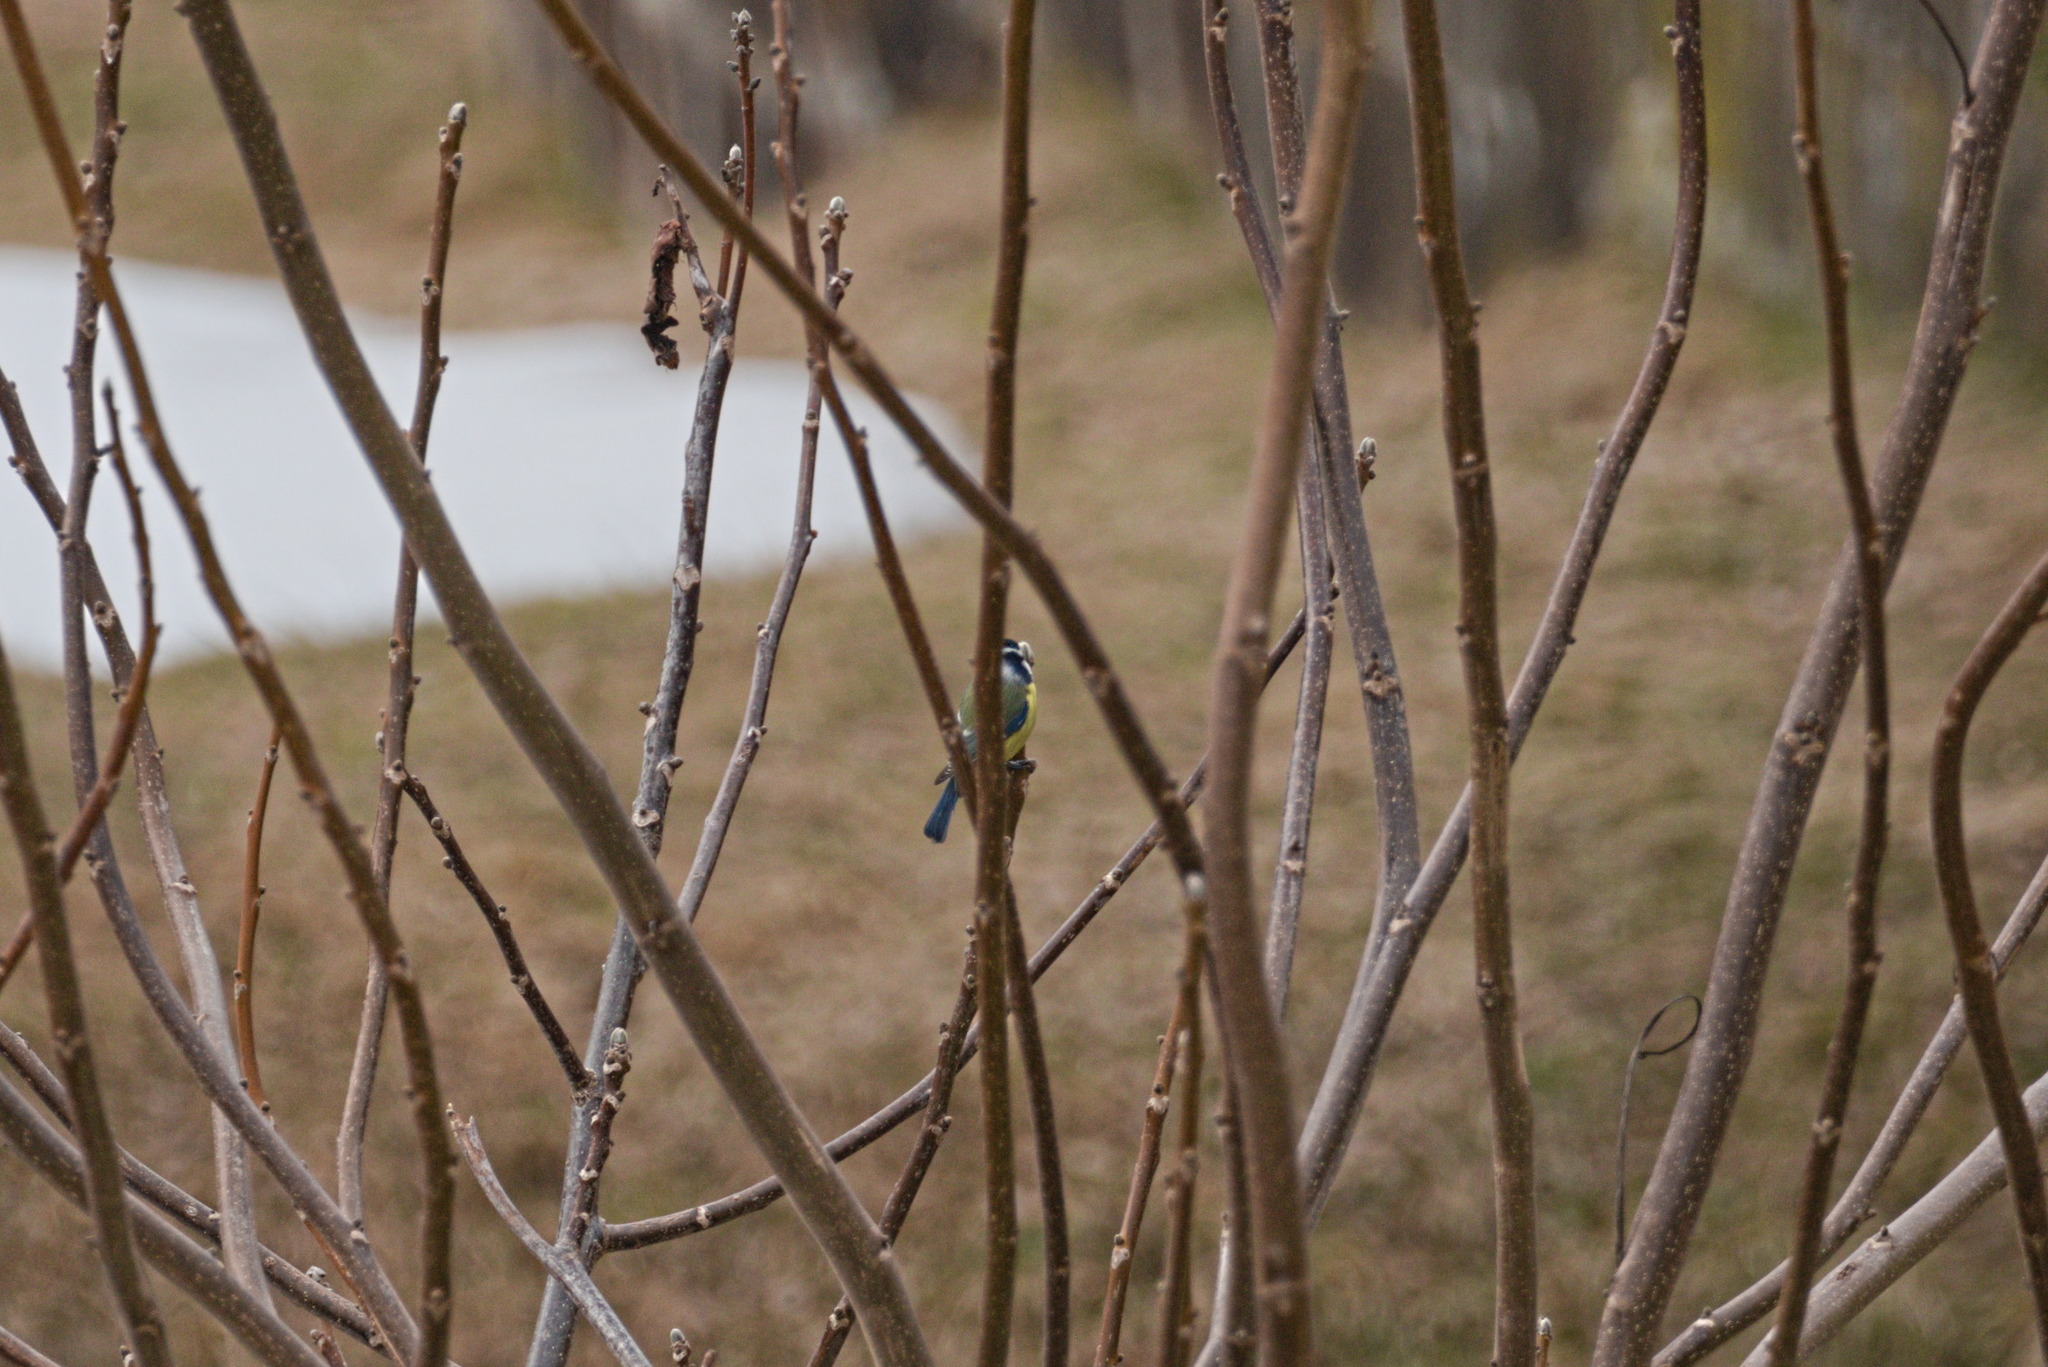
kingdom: Animalia
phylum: Chordata
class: Aves
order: Passeriformes
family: Paridae
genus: Cyanistes
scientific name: Cyanistes caeruleus
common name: Eurasian blue tit
